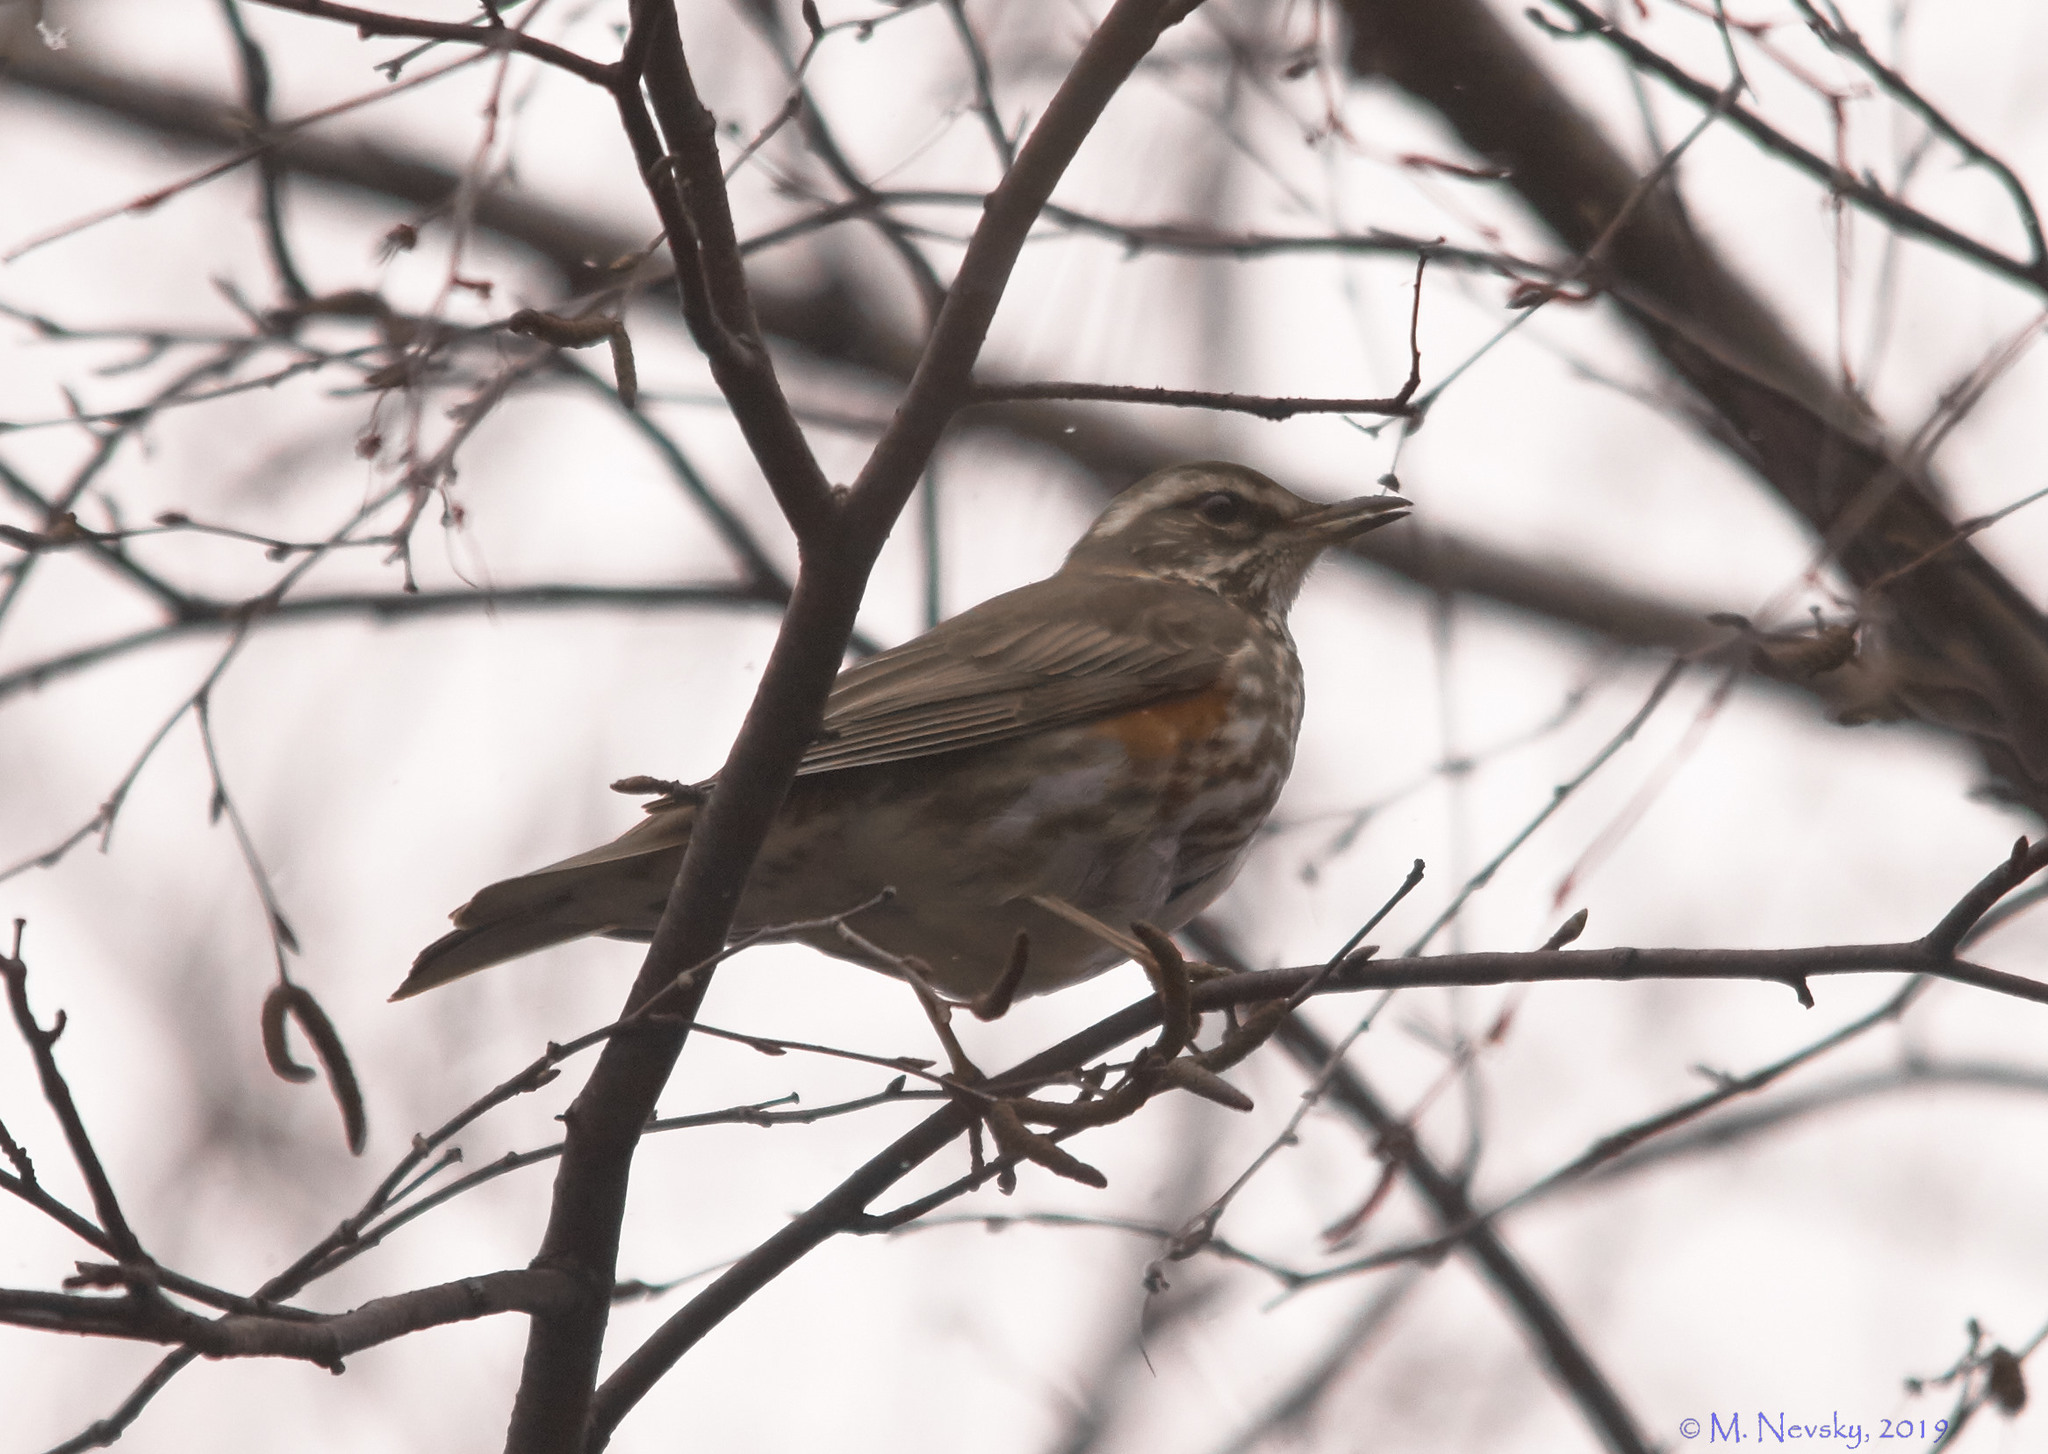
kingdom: Animalia
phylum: Chordata
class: Aves
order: Passeriformes
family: Turdidae
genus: Turdus
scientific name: Turdus iliacus
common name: Redwing
